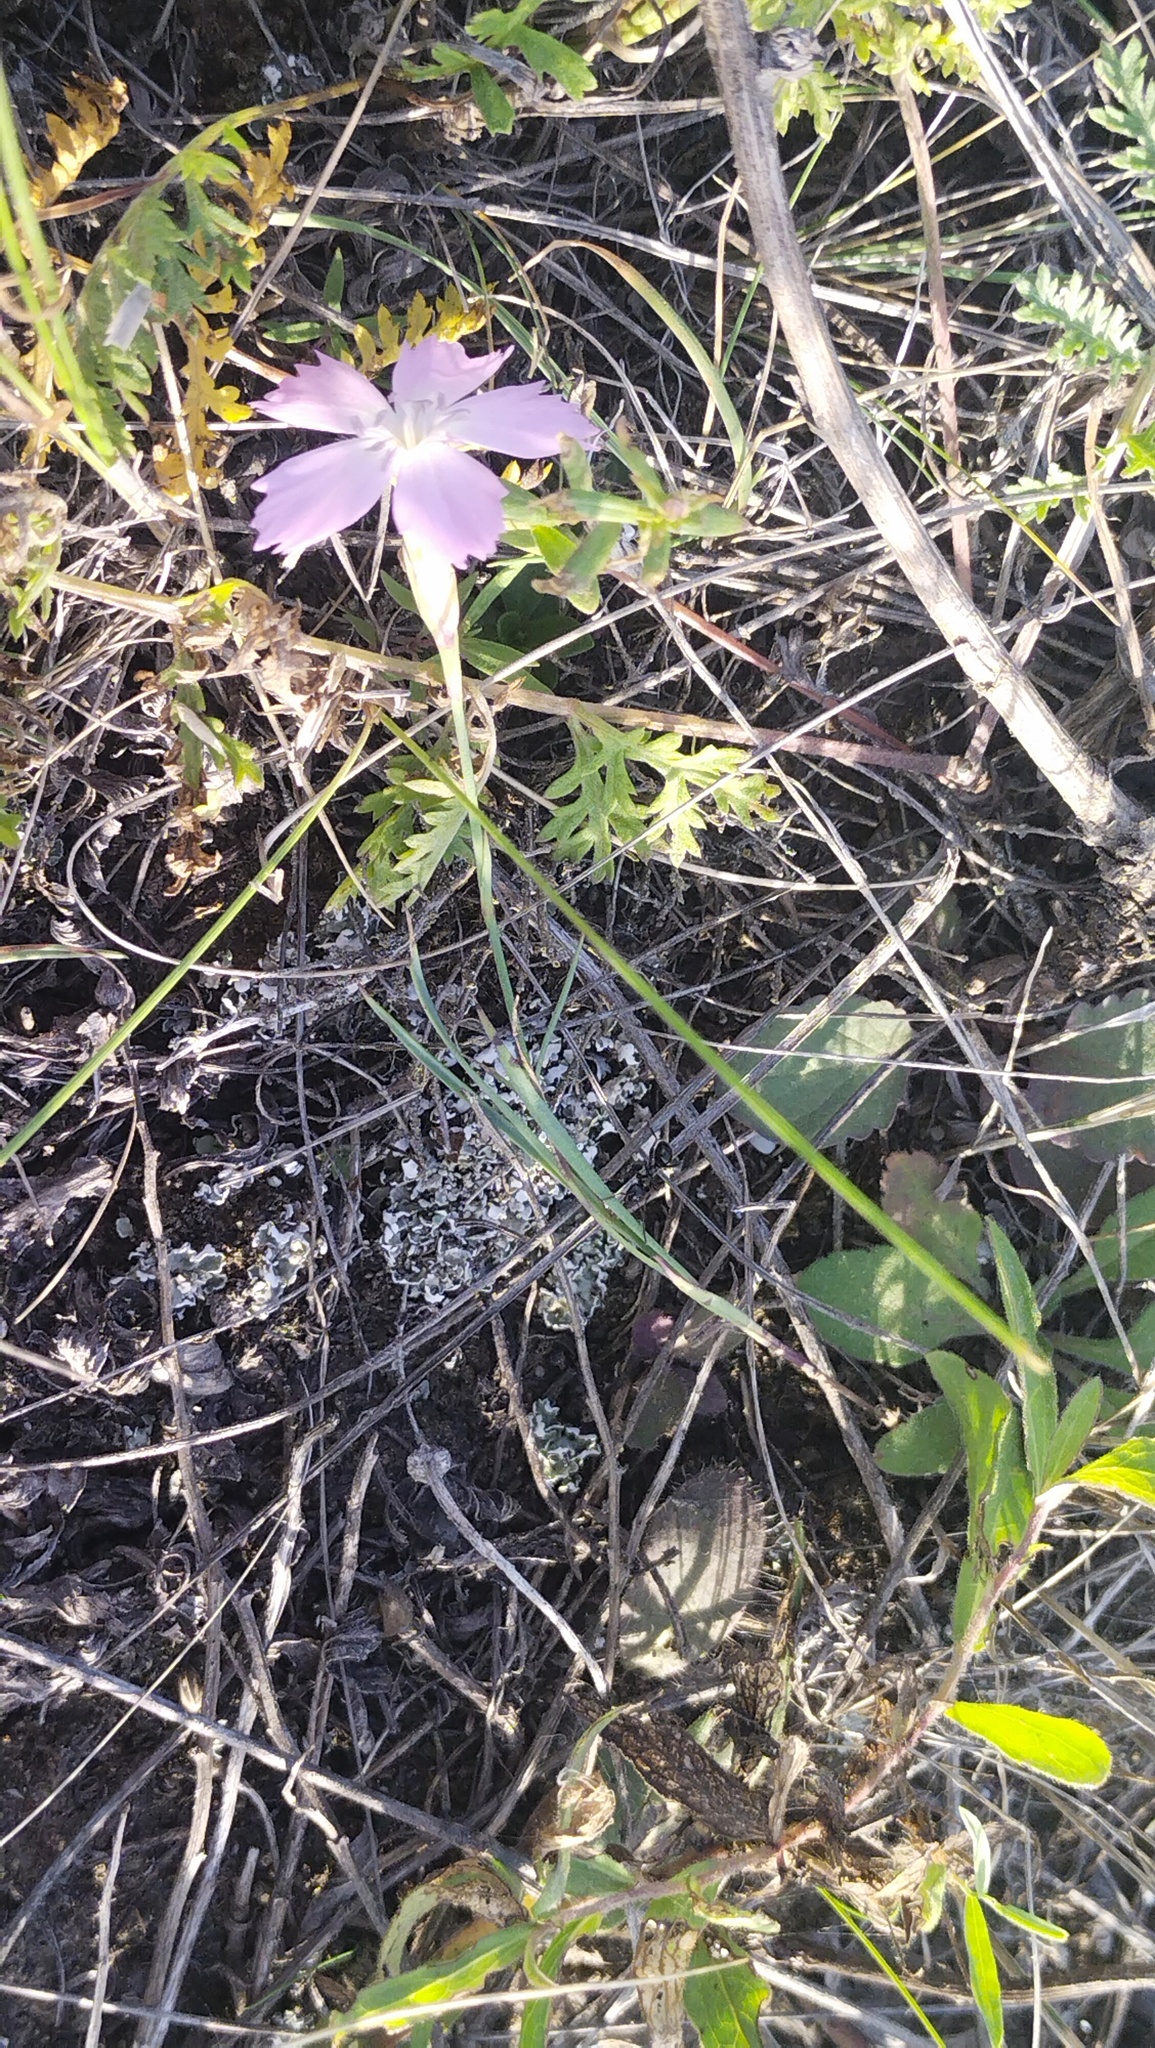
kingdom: Plantae
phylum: Tracheophyta
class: Magnoliopsida
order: Caryophyllales
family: Caryophyllaceae
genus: Dianthus
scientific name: Dianthus chinensis
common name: Rainbow pink
